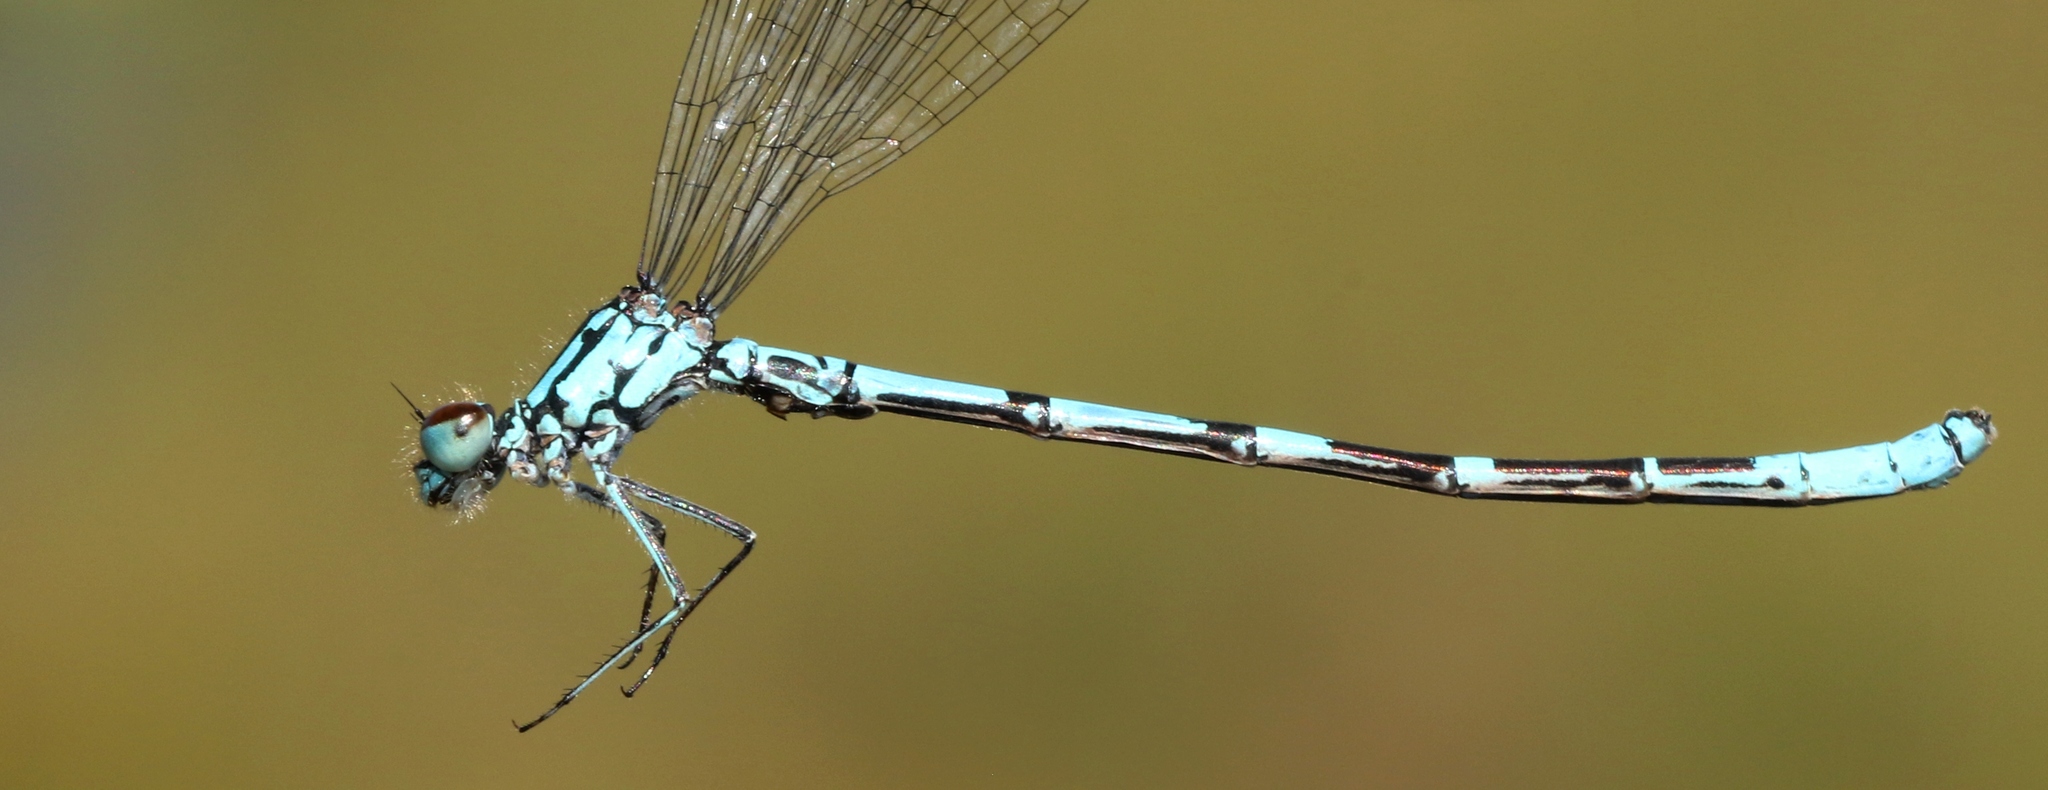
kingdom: Animalia
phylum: Arthropoda
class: Insecta
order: Odonata
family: Coenagrionidae
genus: Coenagrion
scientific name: Coenagrion interrogatum
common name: Subarctic bluet
